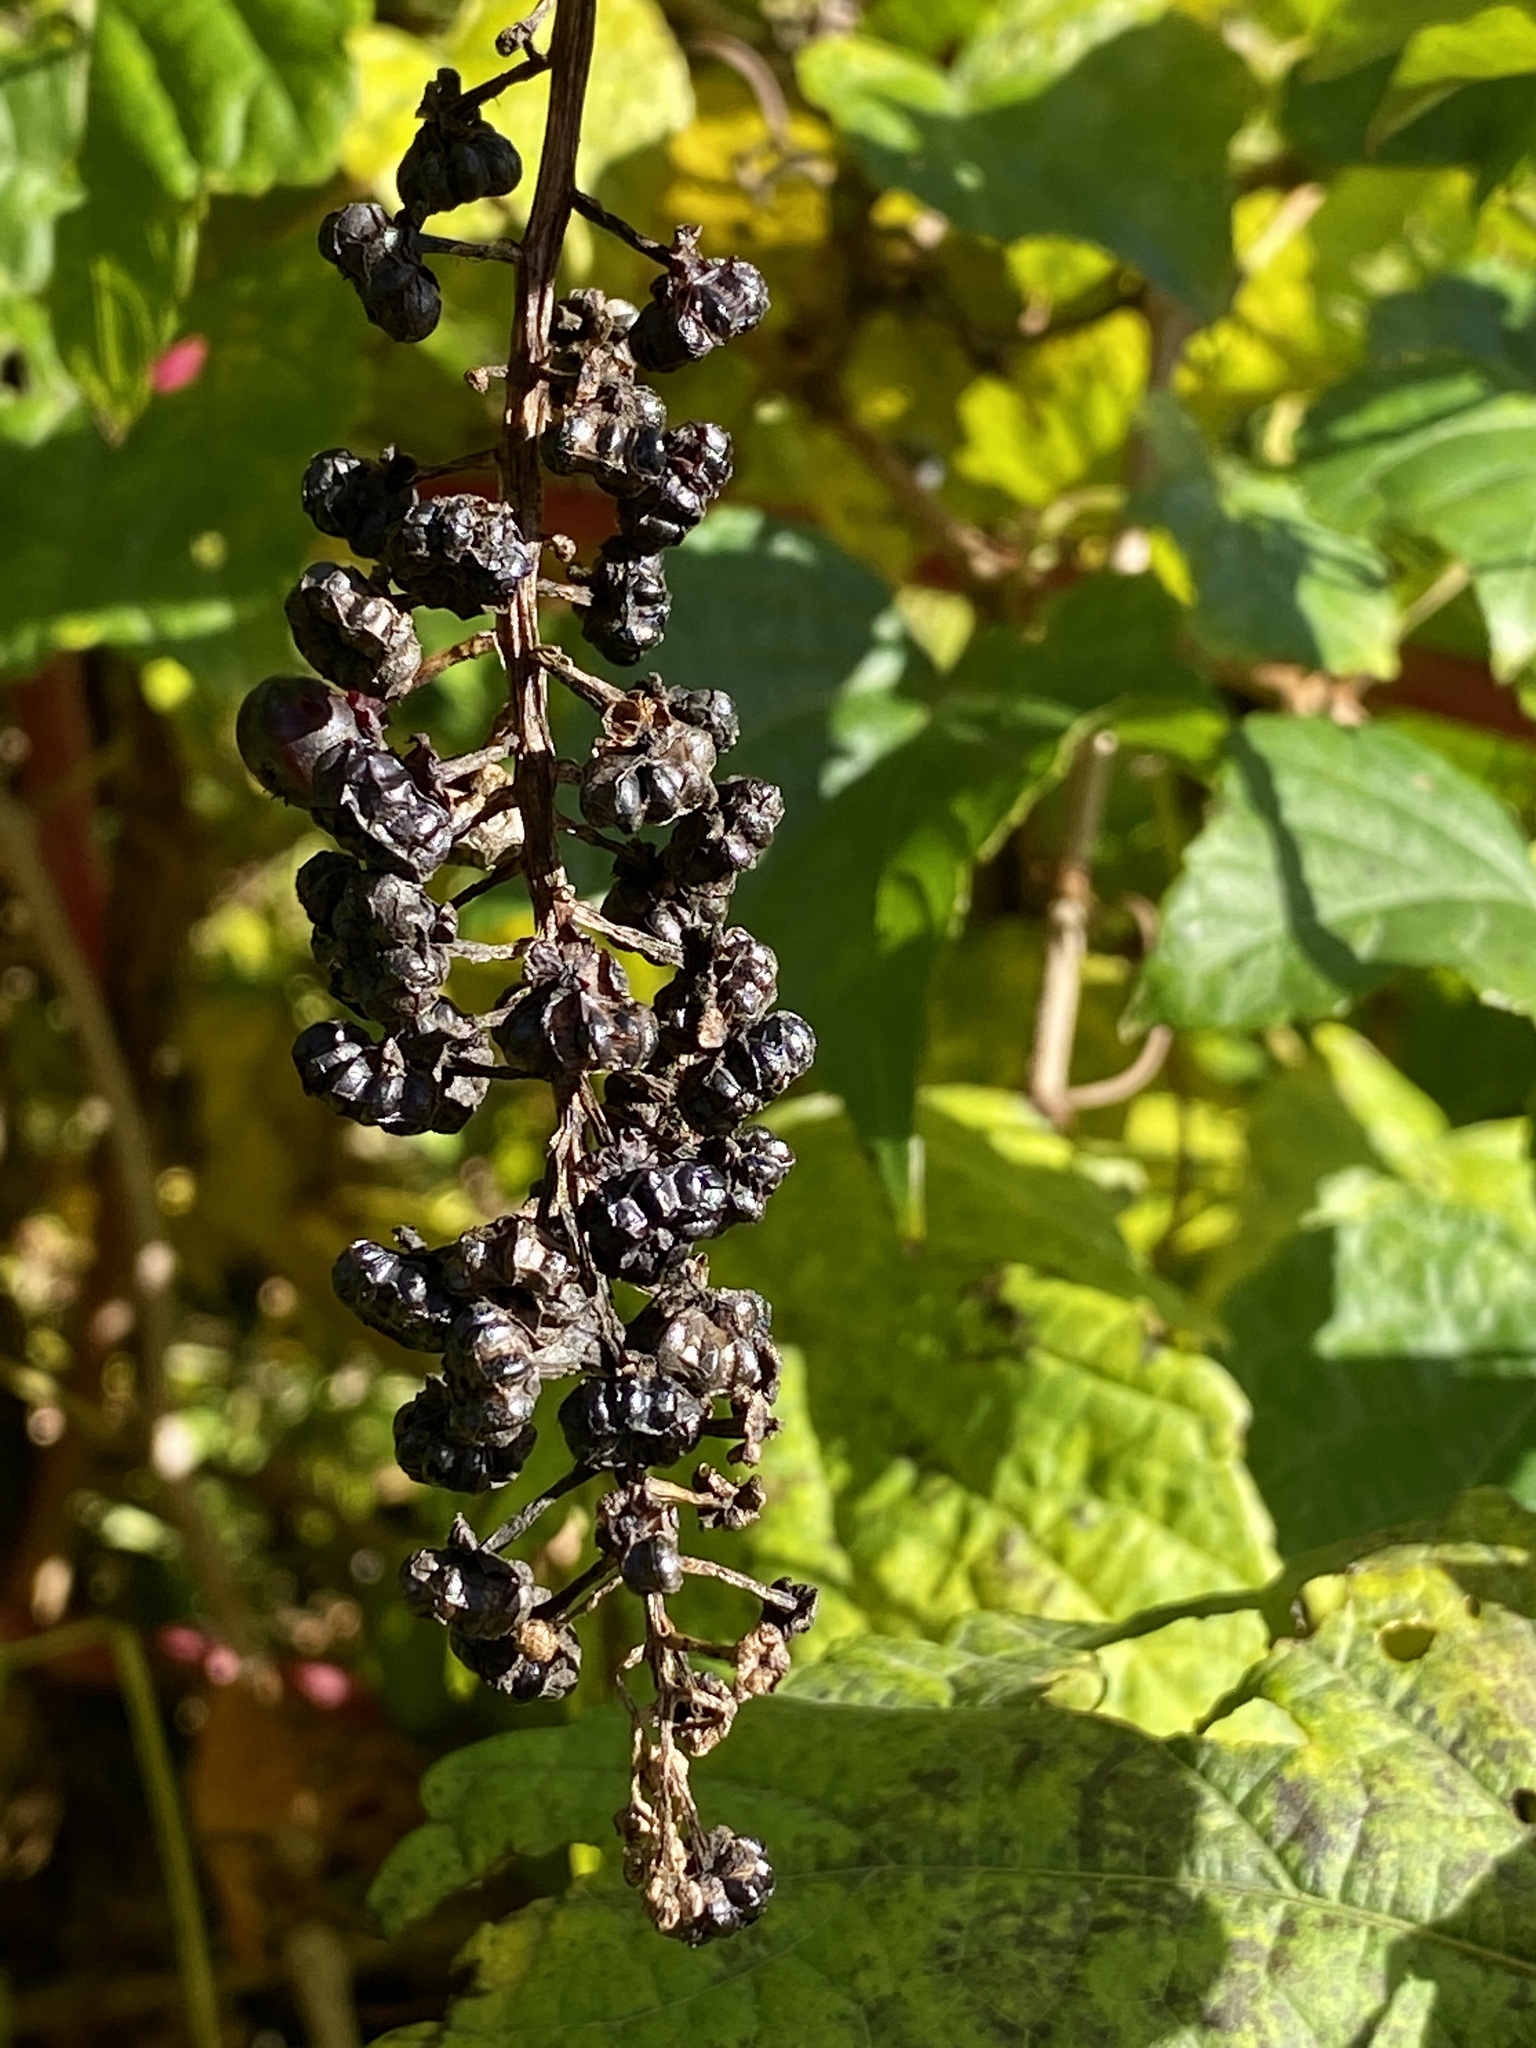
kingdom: Plantae
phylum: Tracheophyta
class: Magnoliopsida
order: Caryophyllales
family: Phytolaccaceae
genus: Phytolacca
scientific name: Phytolacca americana
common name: American pokeweed
